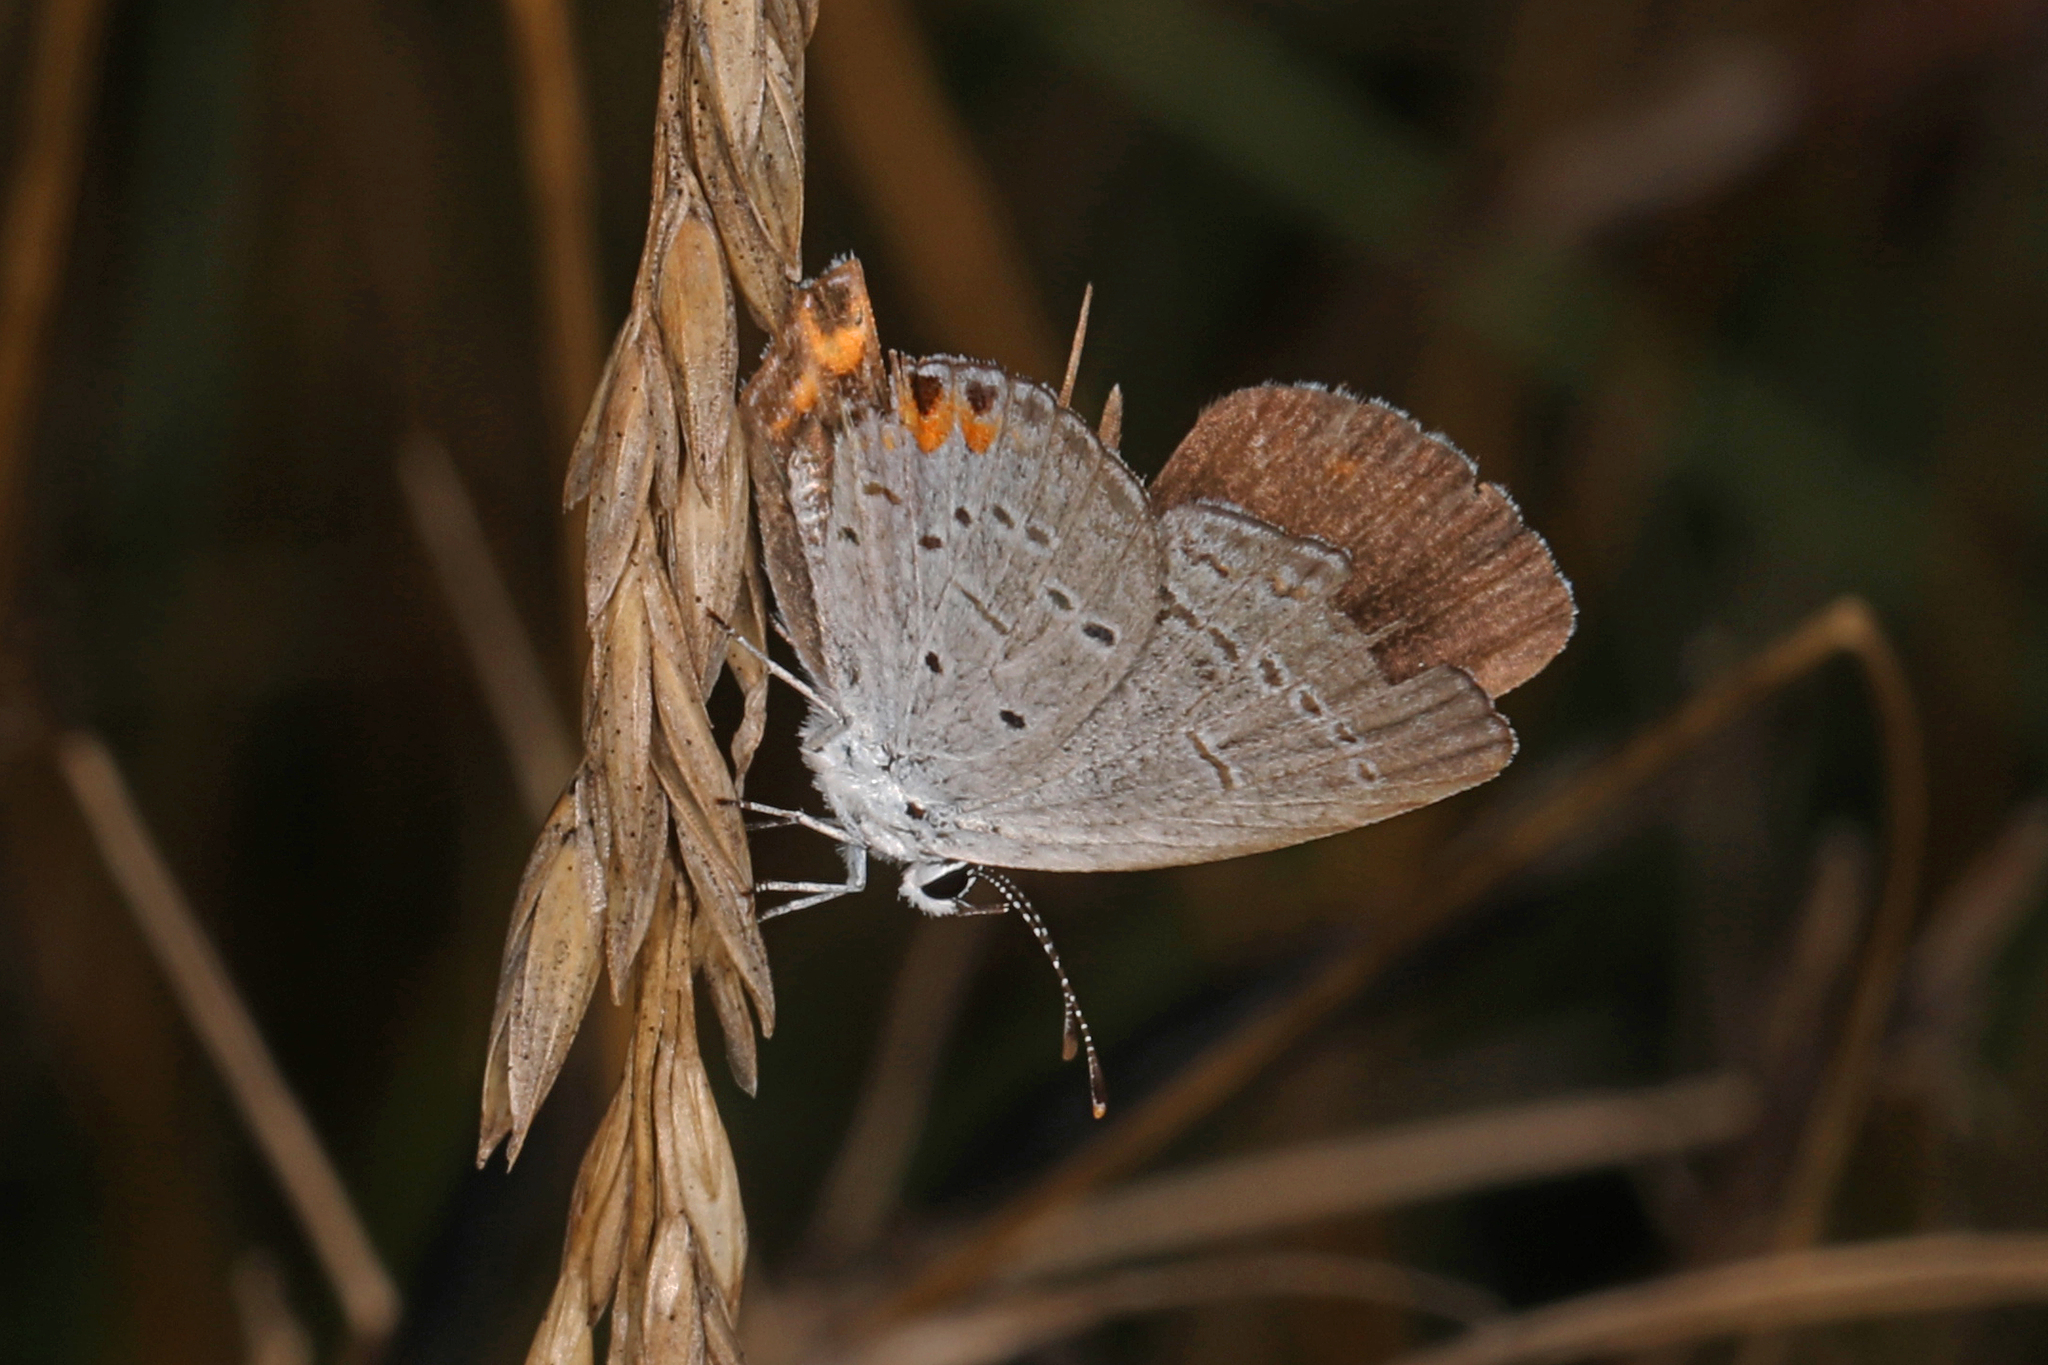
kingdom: Animalia
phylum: Arthropoda
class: Insecta
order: Lepidoptera
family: Lycaenidae
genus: Elkalyce
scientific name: Elkalyce comyntas
